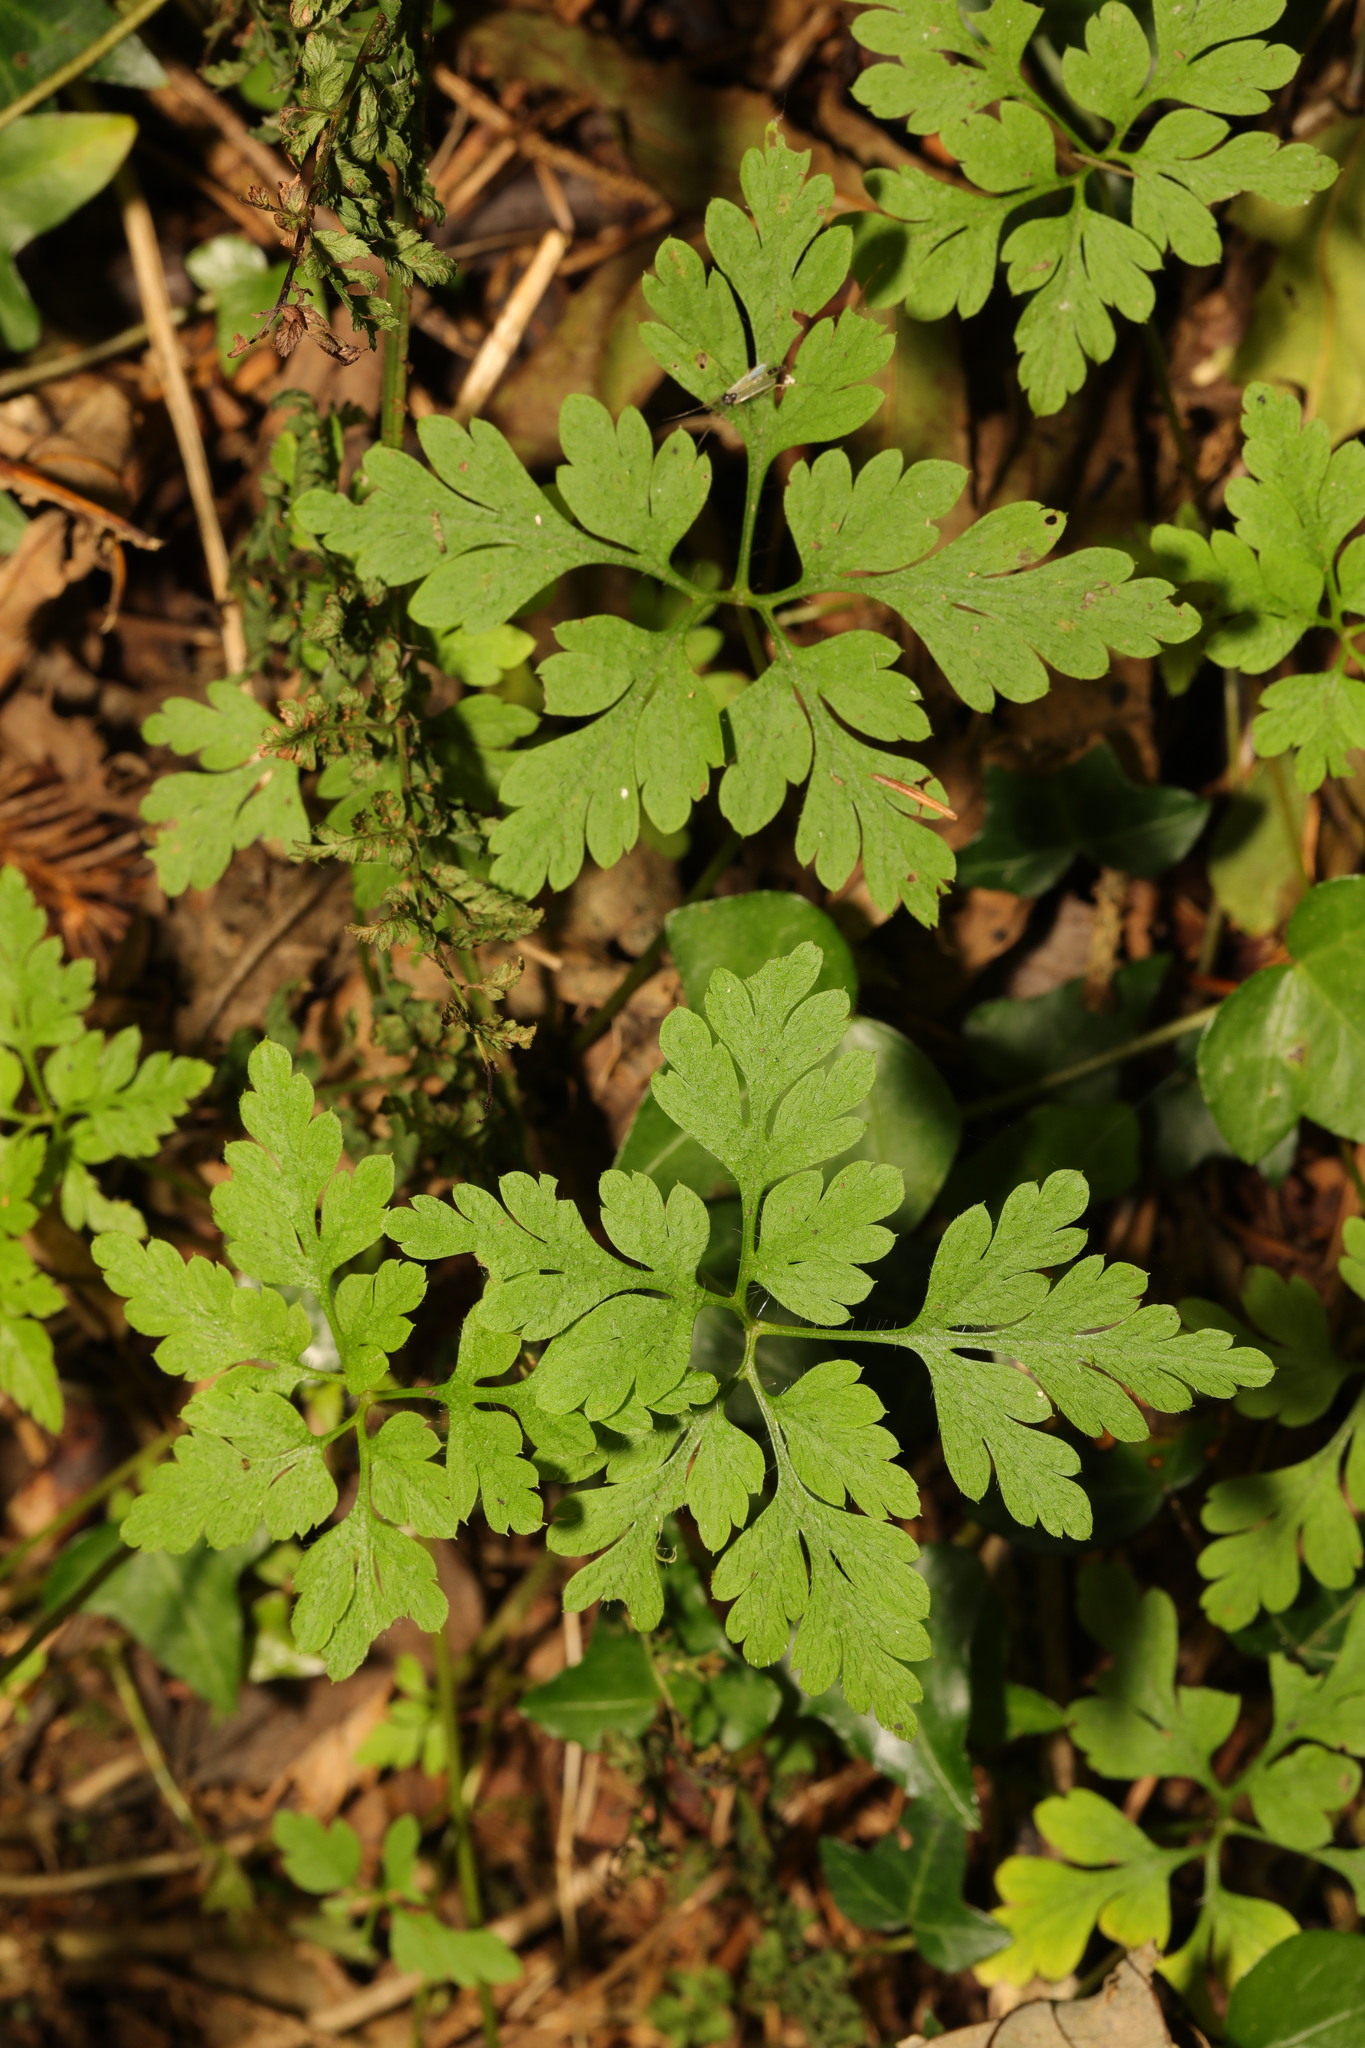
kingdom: Plantae
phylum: Tracheophyta
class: Magnoliopsida
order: Geraniales
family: Geraniaceae
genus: Geranium
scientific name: Geranium robertianum
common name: Herb-robert
